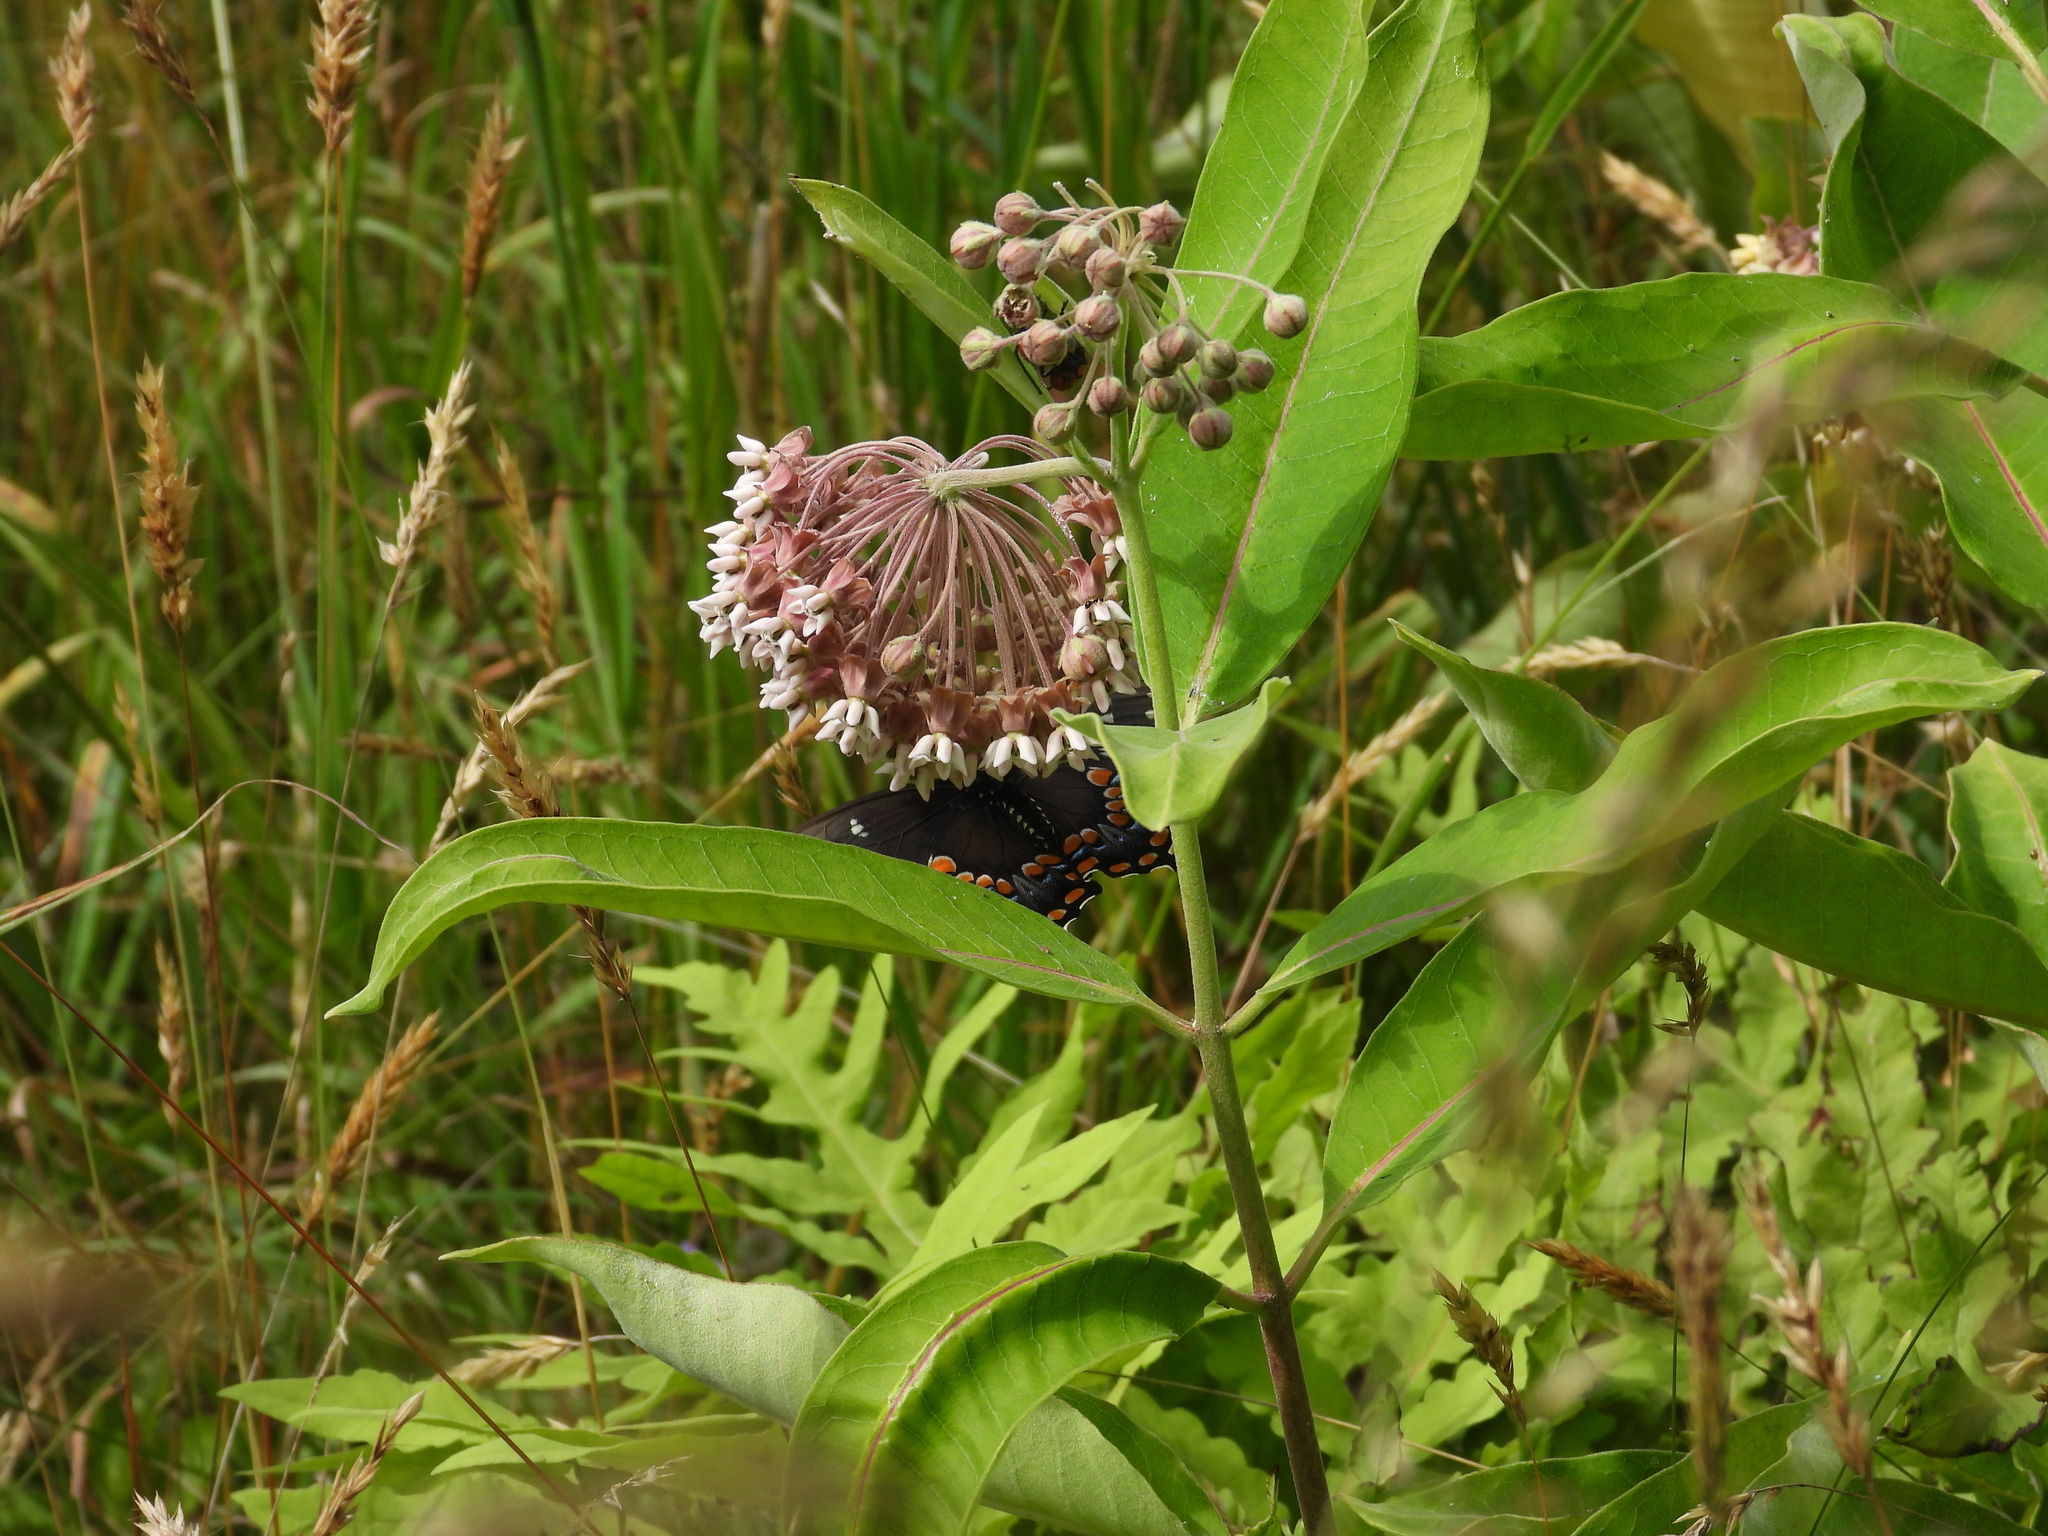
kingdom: Animalia
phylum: Arthropoda
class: Insecta
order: Lepidoptera
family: Papilionidae
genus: Papilio
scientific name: Papilio troilus
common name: Spicebush swallowtail
